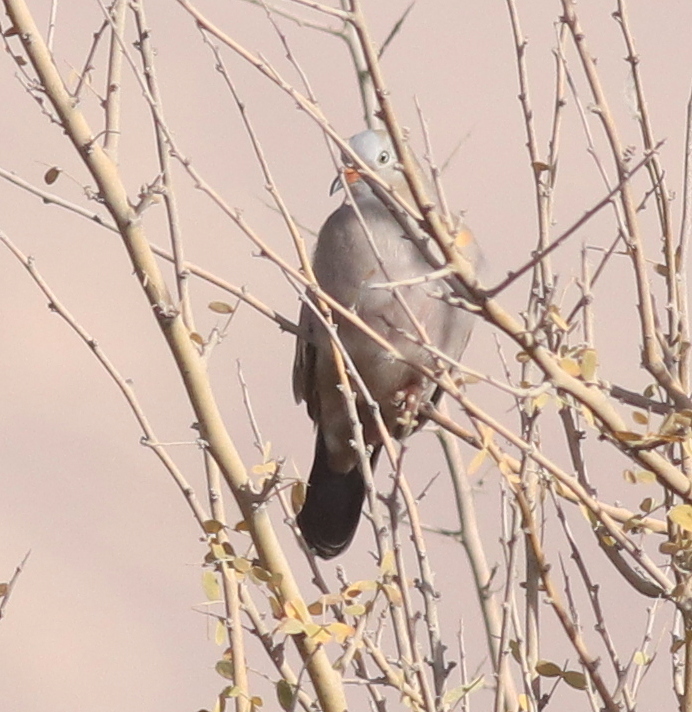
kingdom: Animalia
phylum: Chordata
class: Aves
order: Columbiformes
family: Columbidae
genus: Columbina
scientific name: Columbina cruziana
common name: Croaking ground dove
